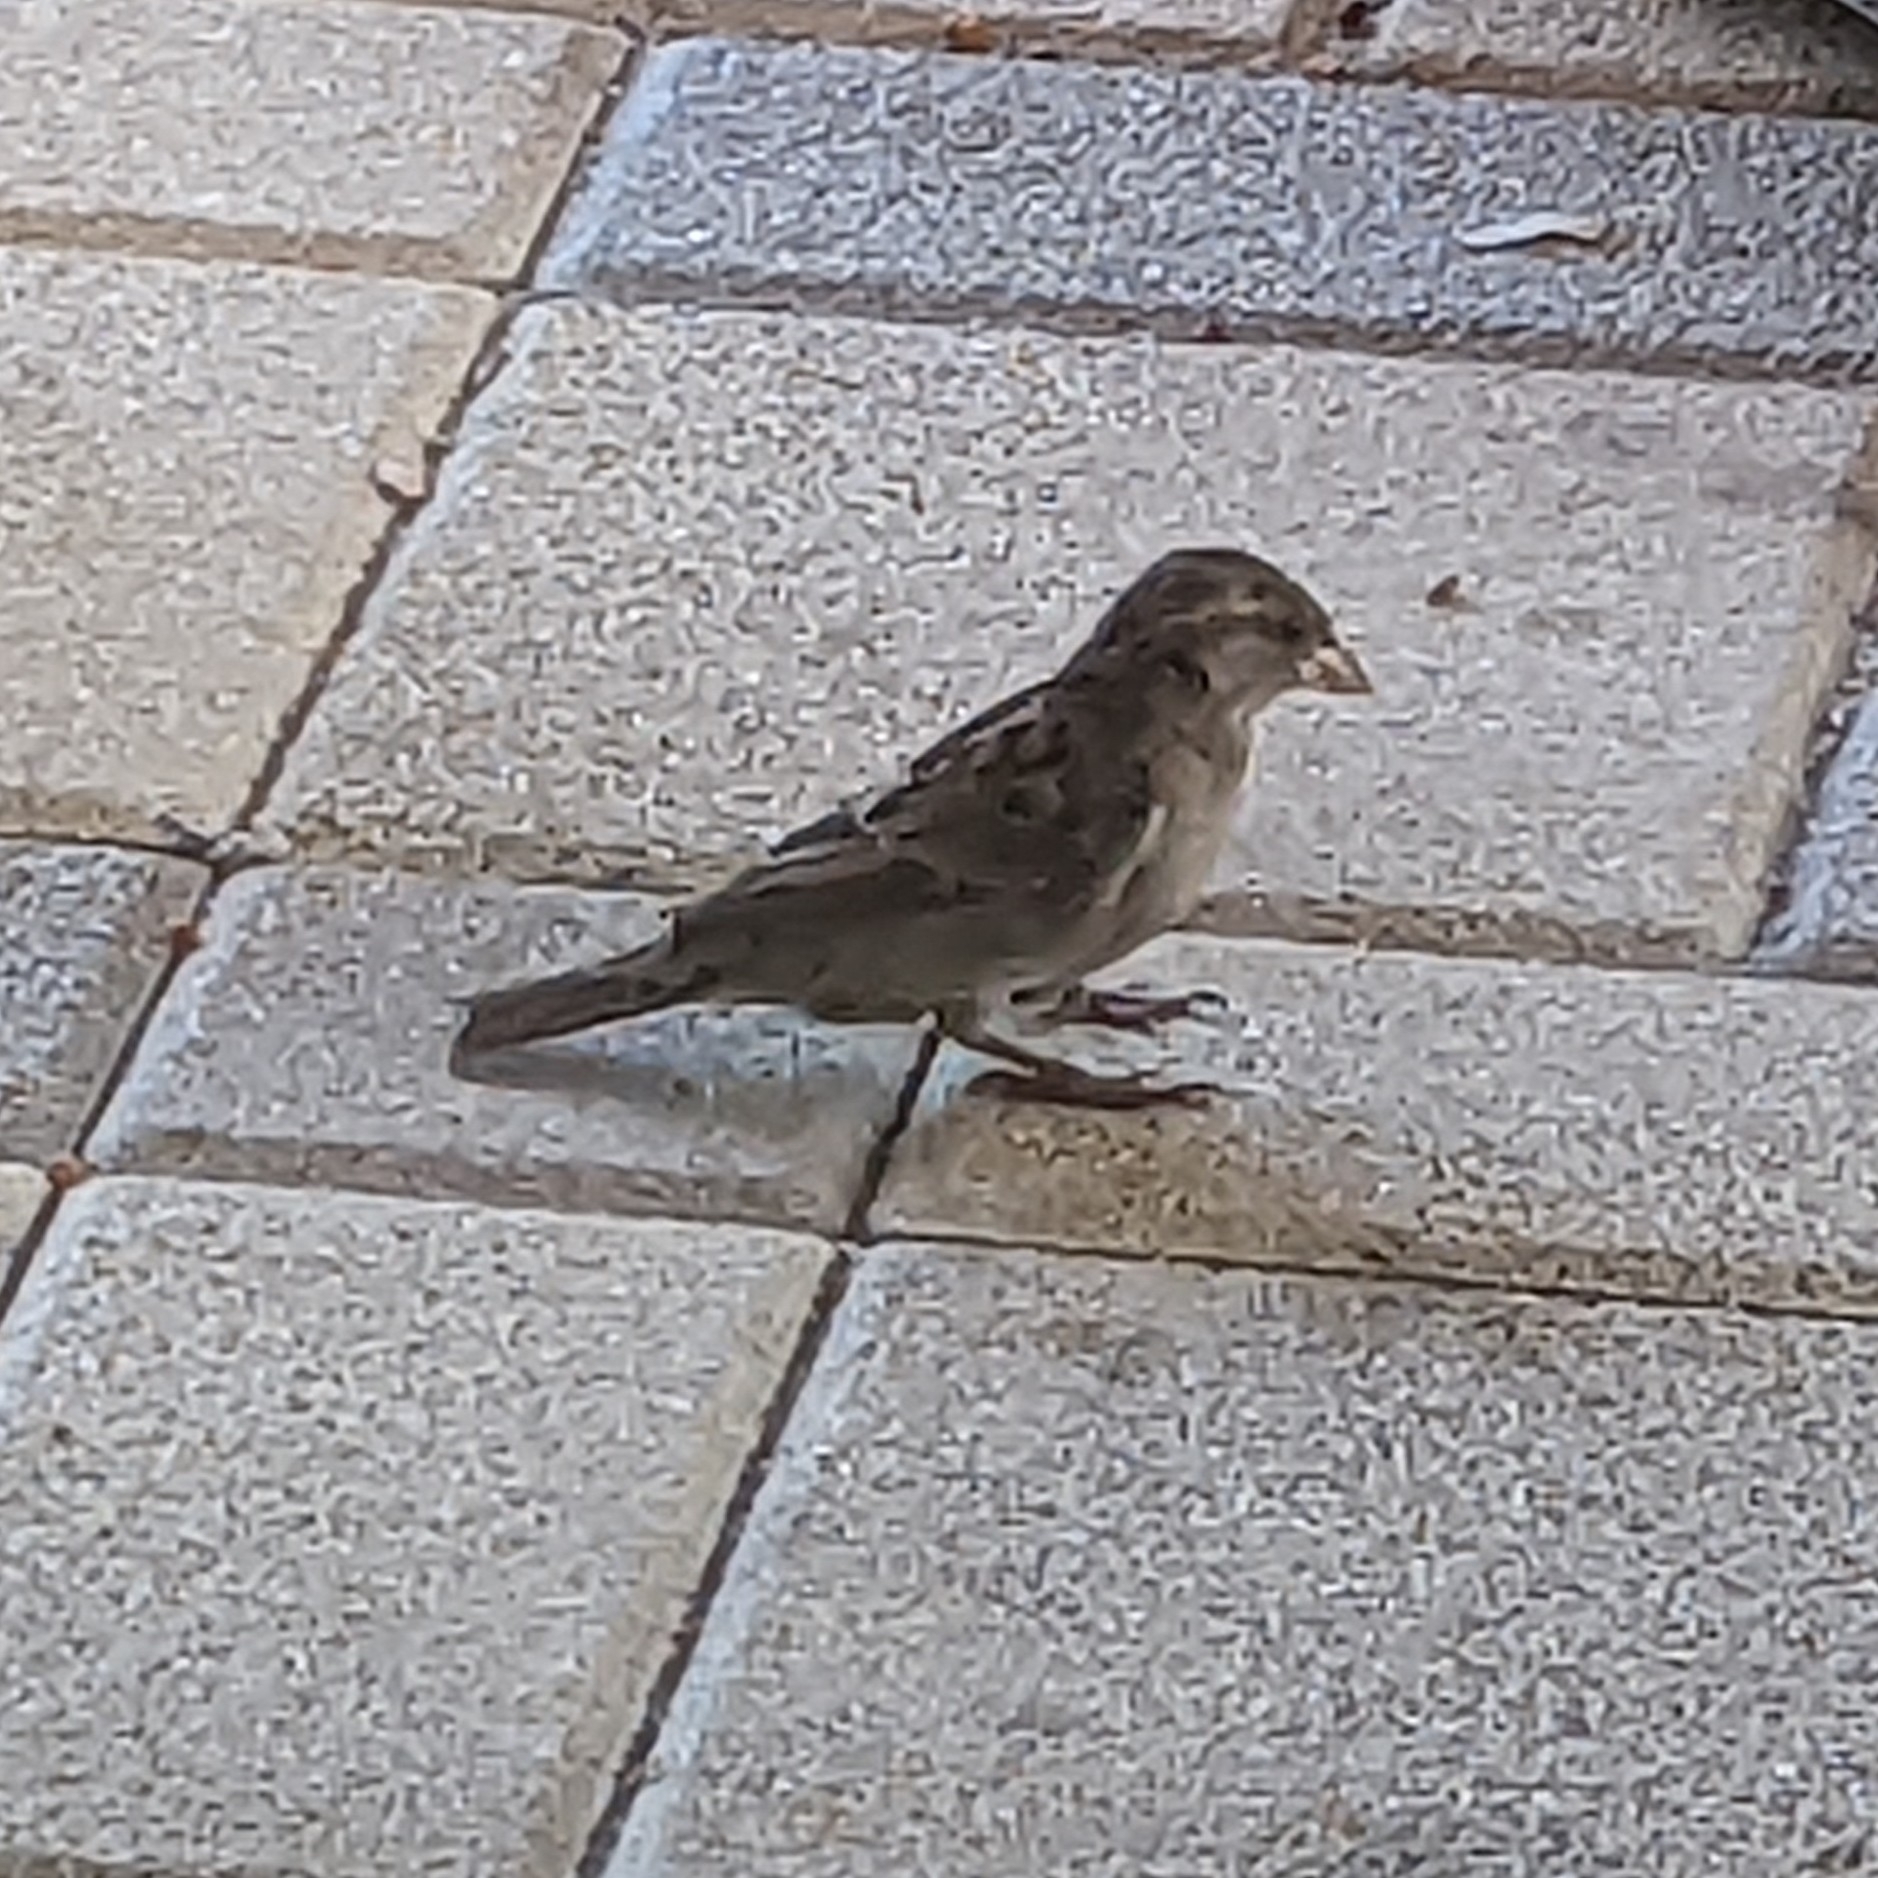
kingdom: Animalia
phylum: Chordata
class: Aves
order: Passeriformes
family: Passeridae
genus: Passer
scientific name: Passer domesticus
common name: House sparrow
